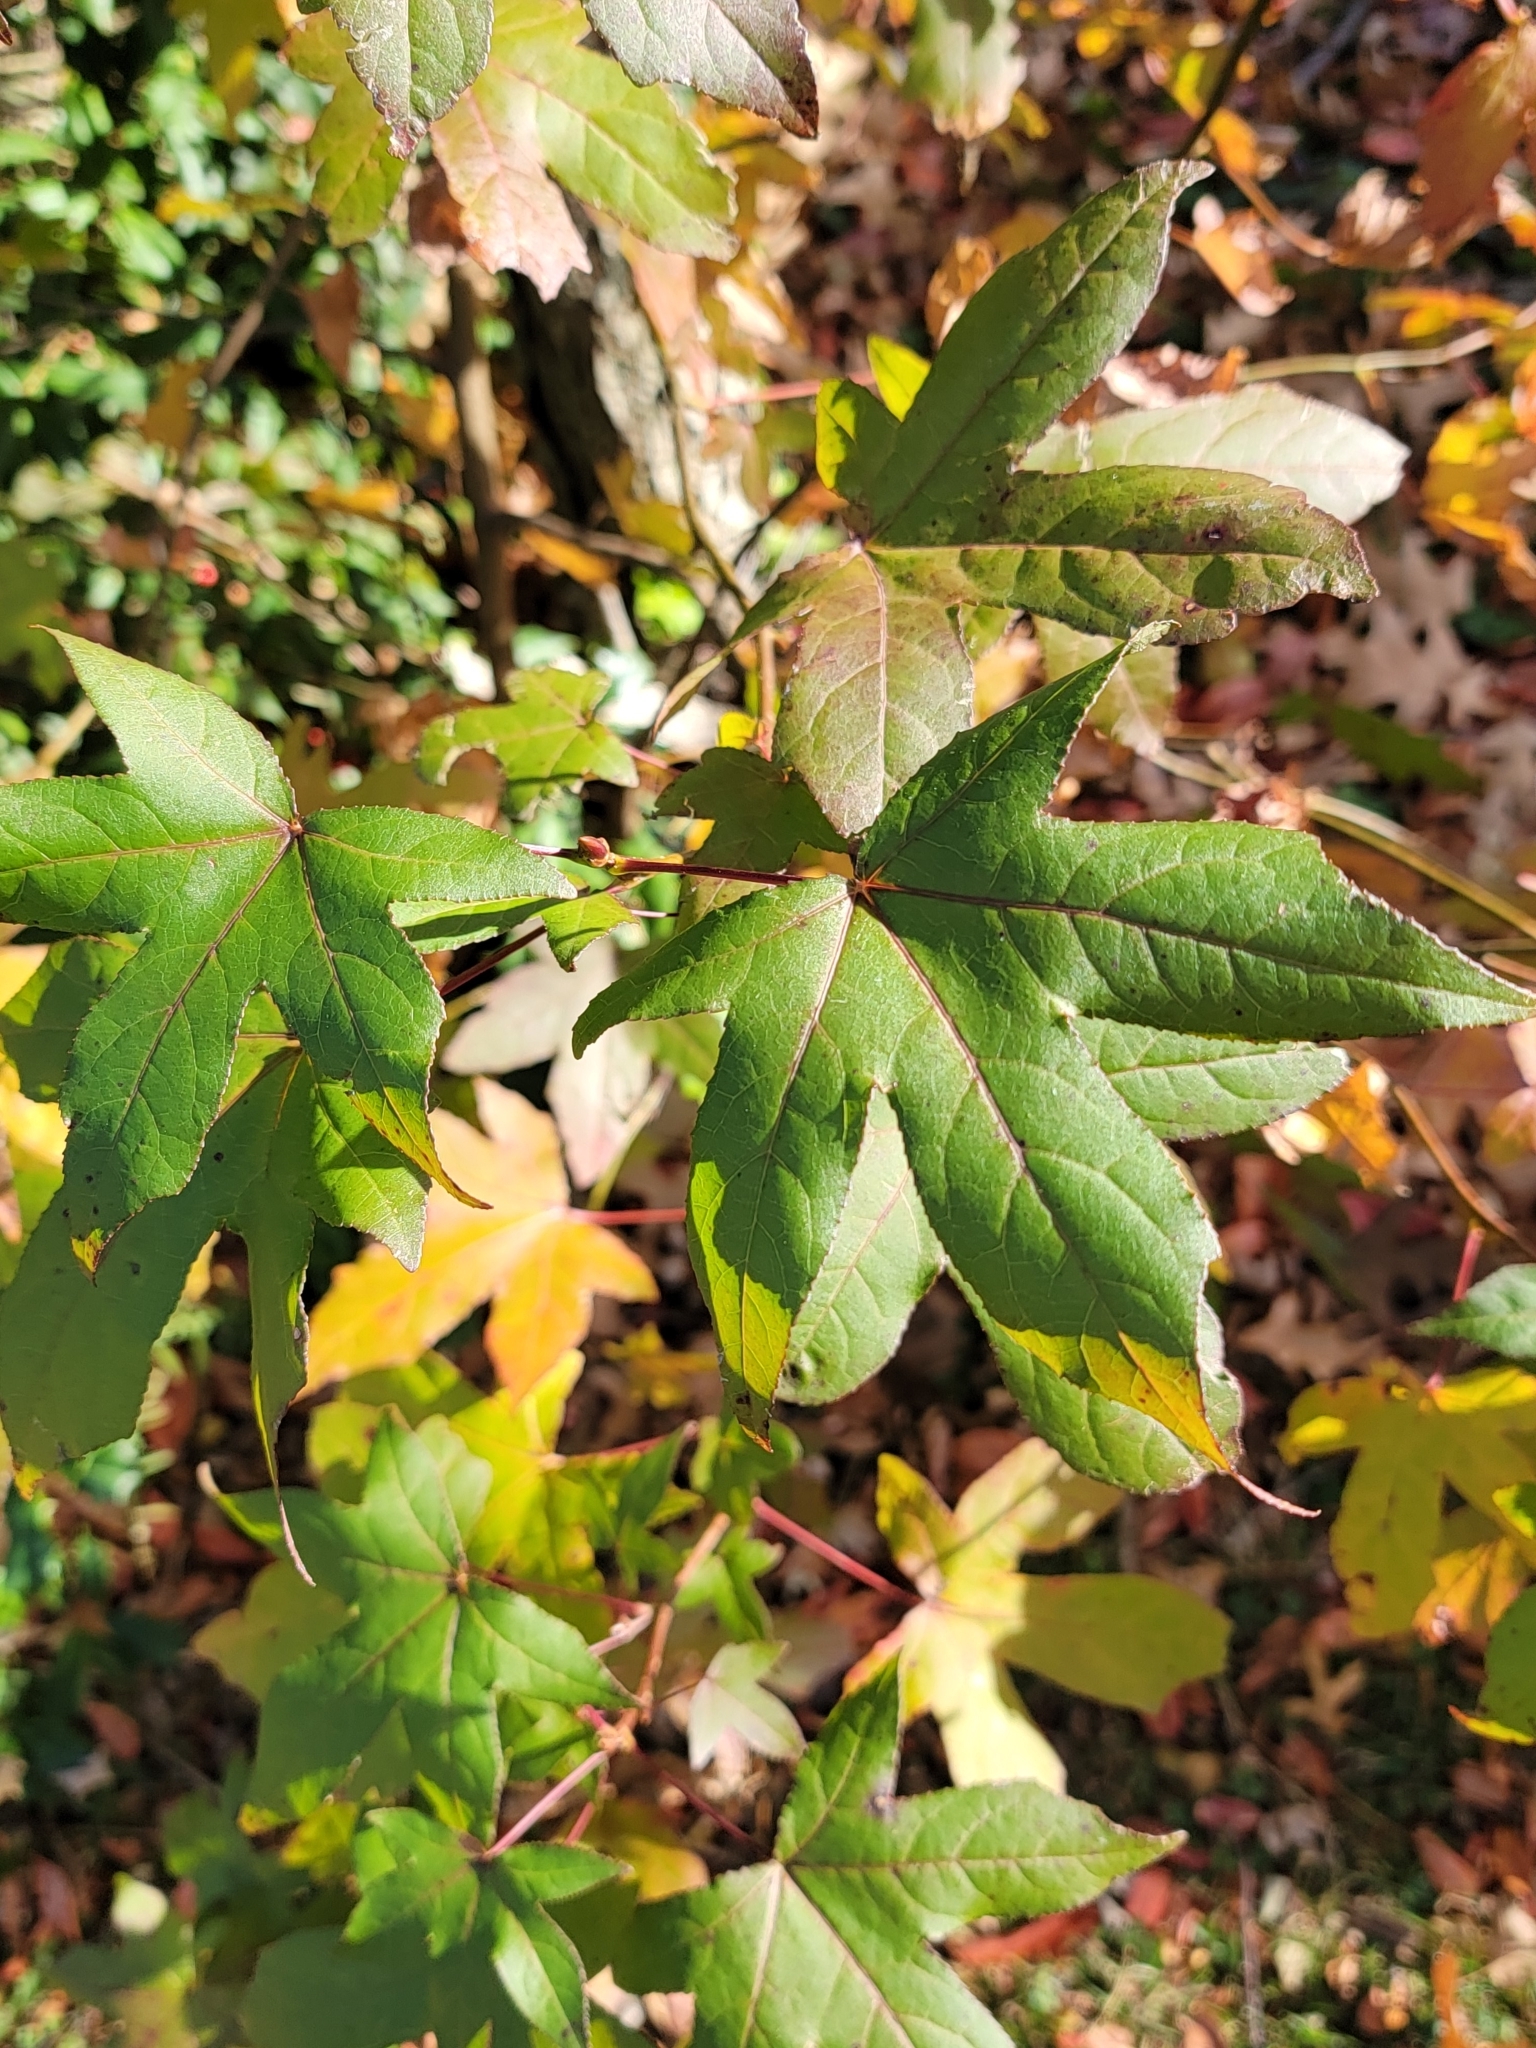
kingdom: Plantae
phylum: Tracheophyta
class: Magnoliopsida
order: Saxifragales
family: Altingiaceae
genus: Liquidambar
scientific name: Liquidambar styraciflua
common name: Sweet gum
